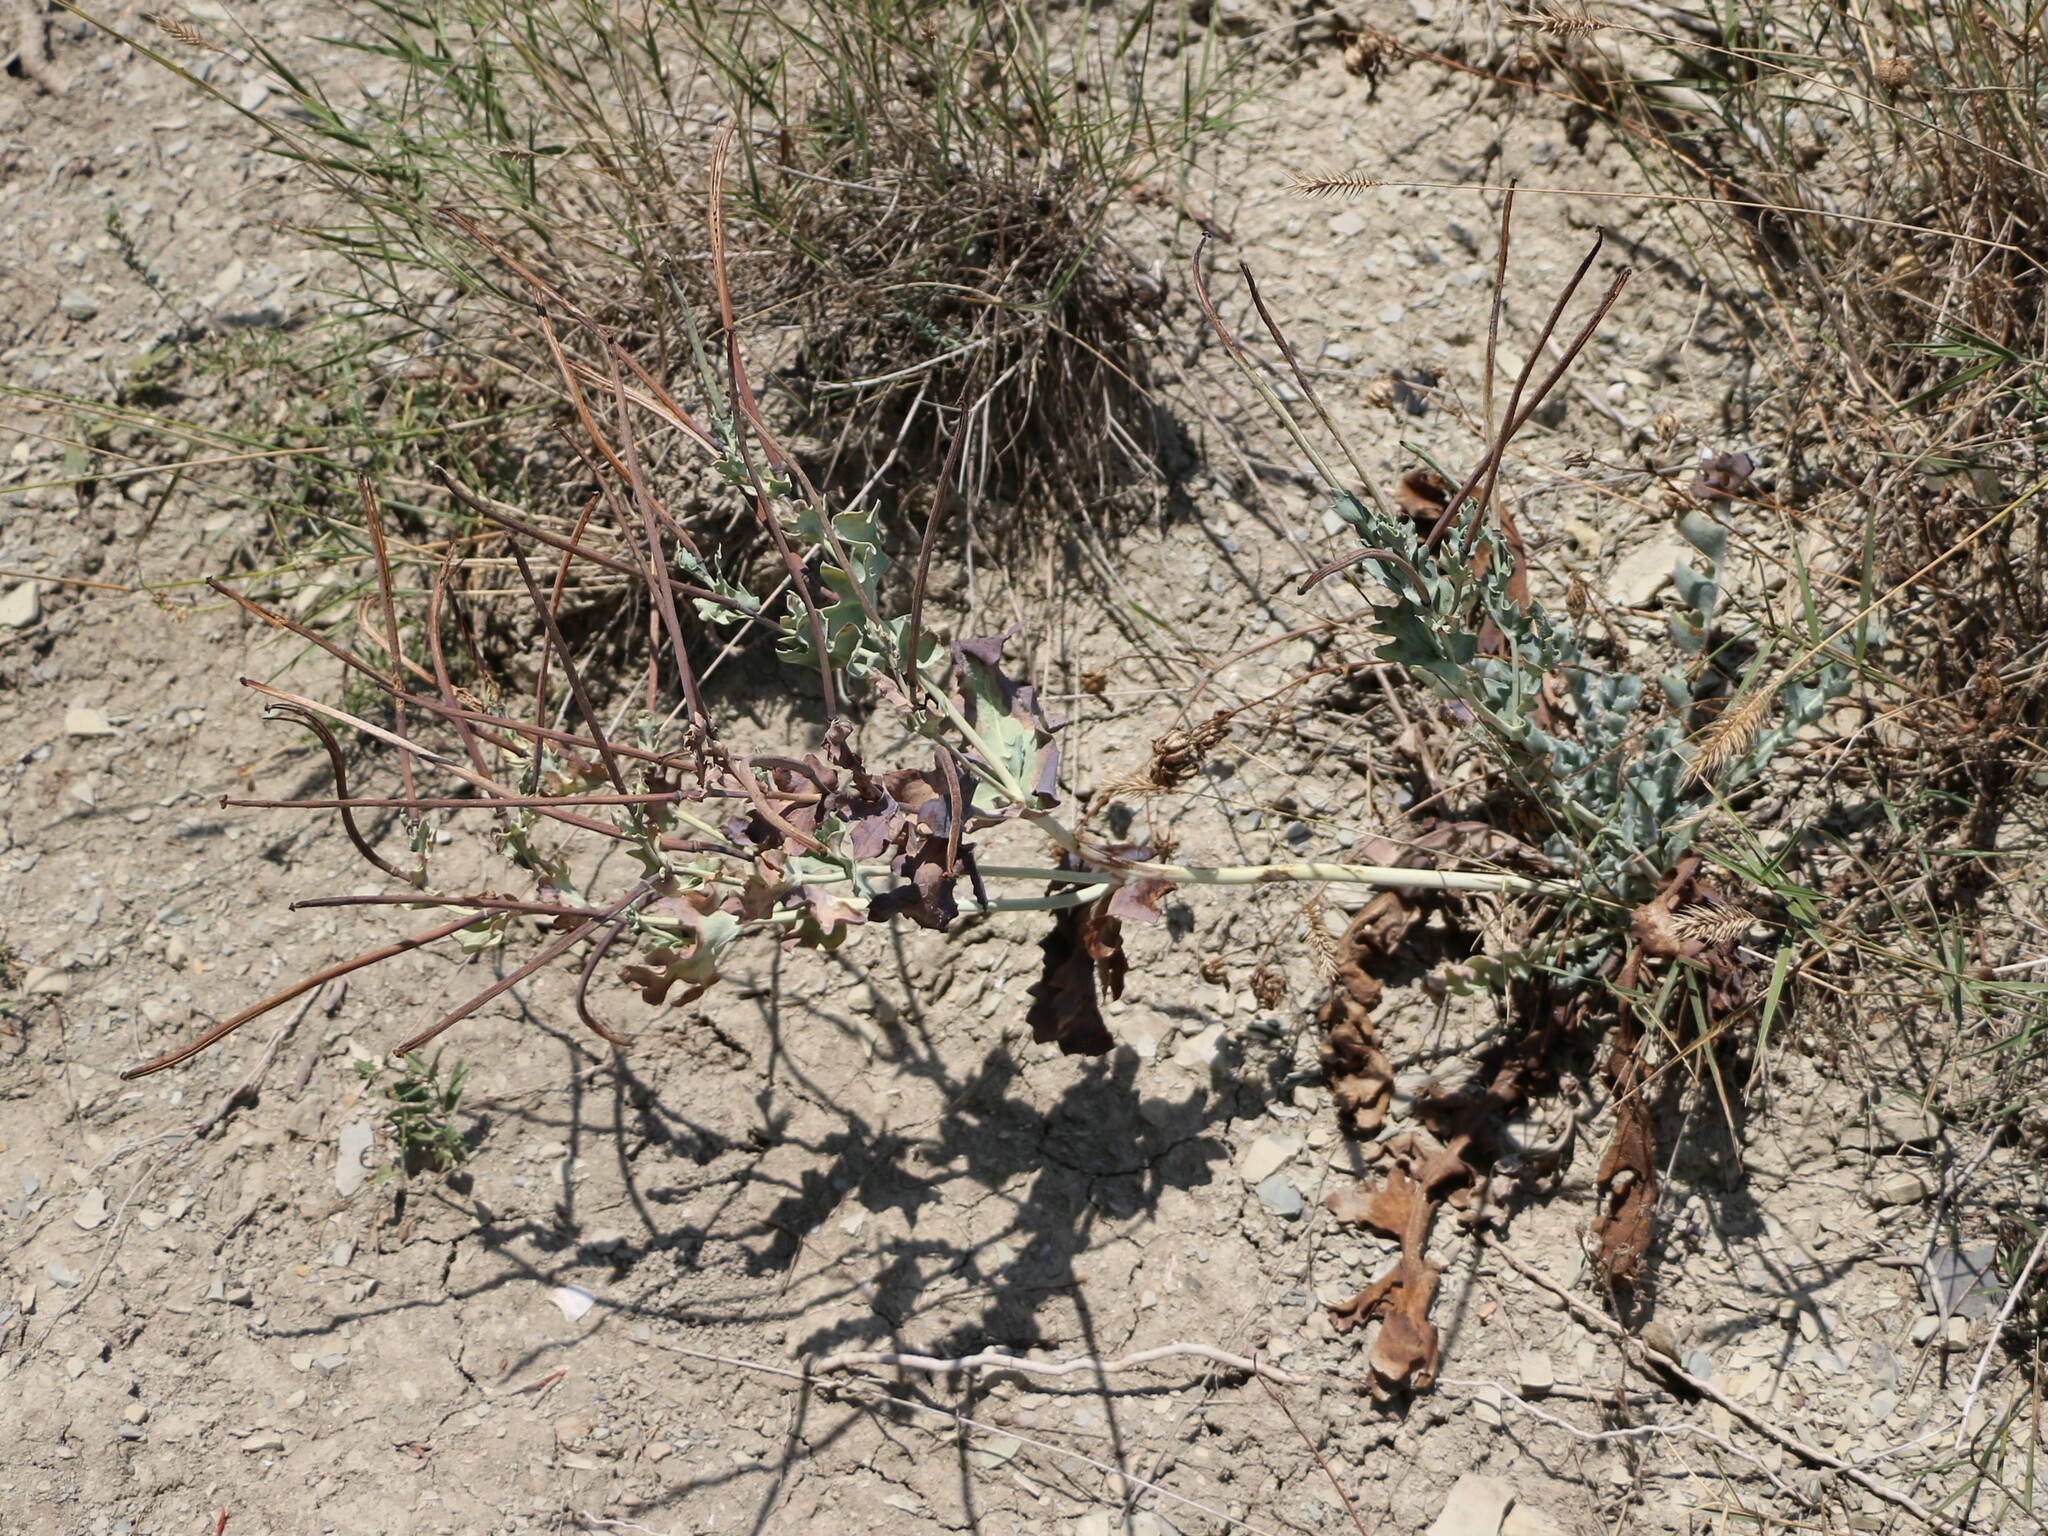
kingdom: Plantae
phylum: Tracheophyta
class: Magnoliopsida
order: Ranunculales
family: Papaveraceae
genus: Glaucium
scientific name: Glaucium flavum
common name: Yellow horned-poppy
